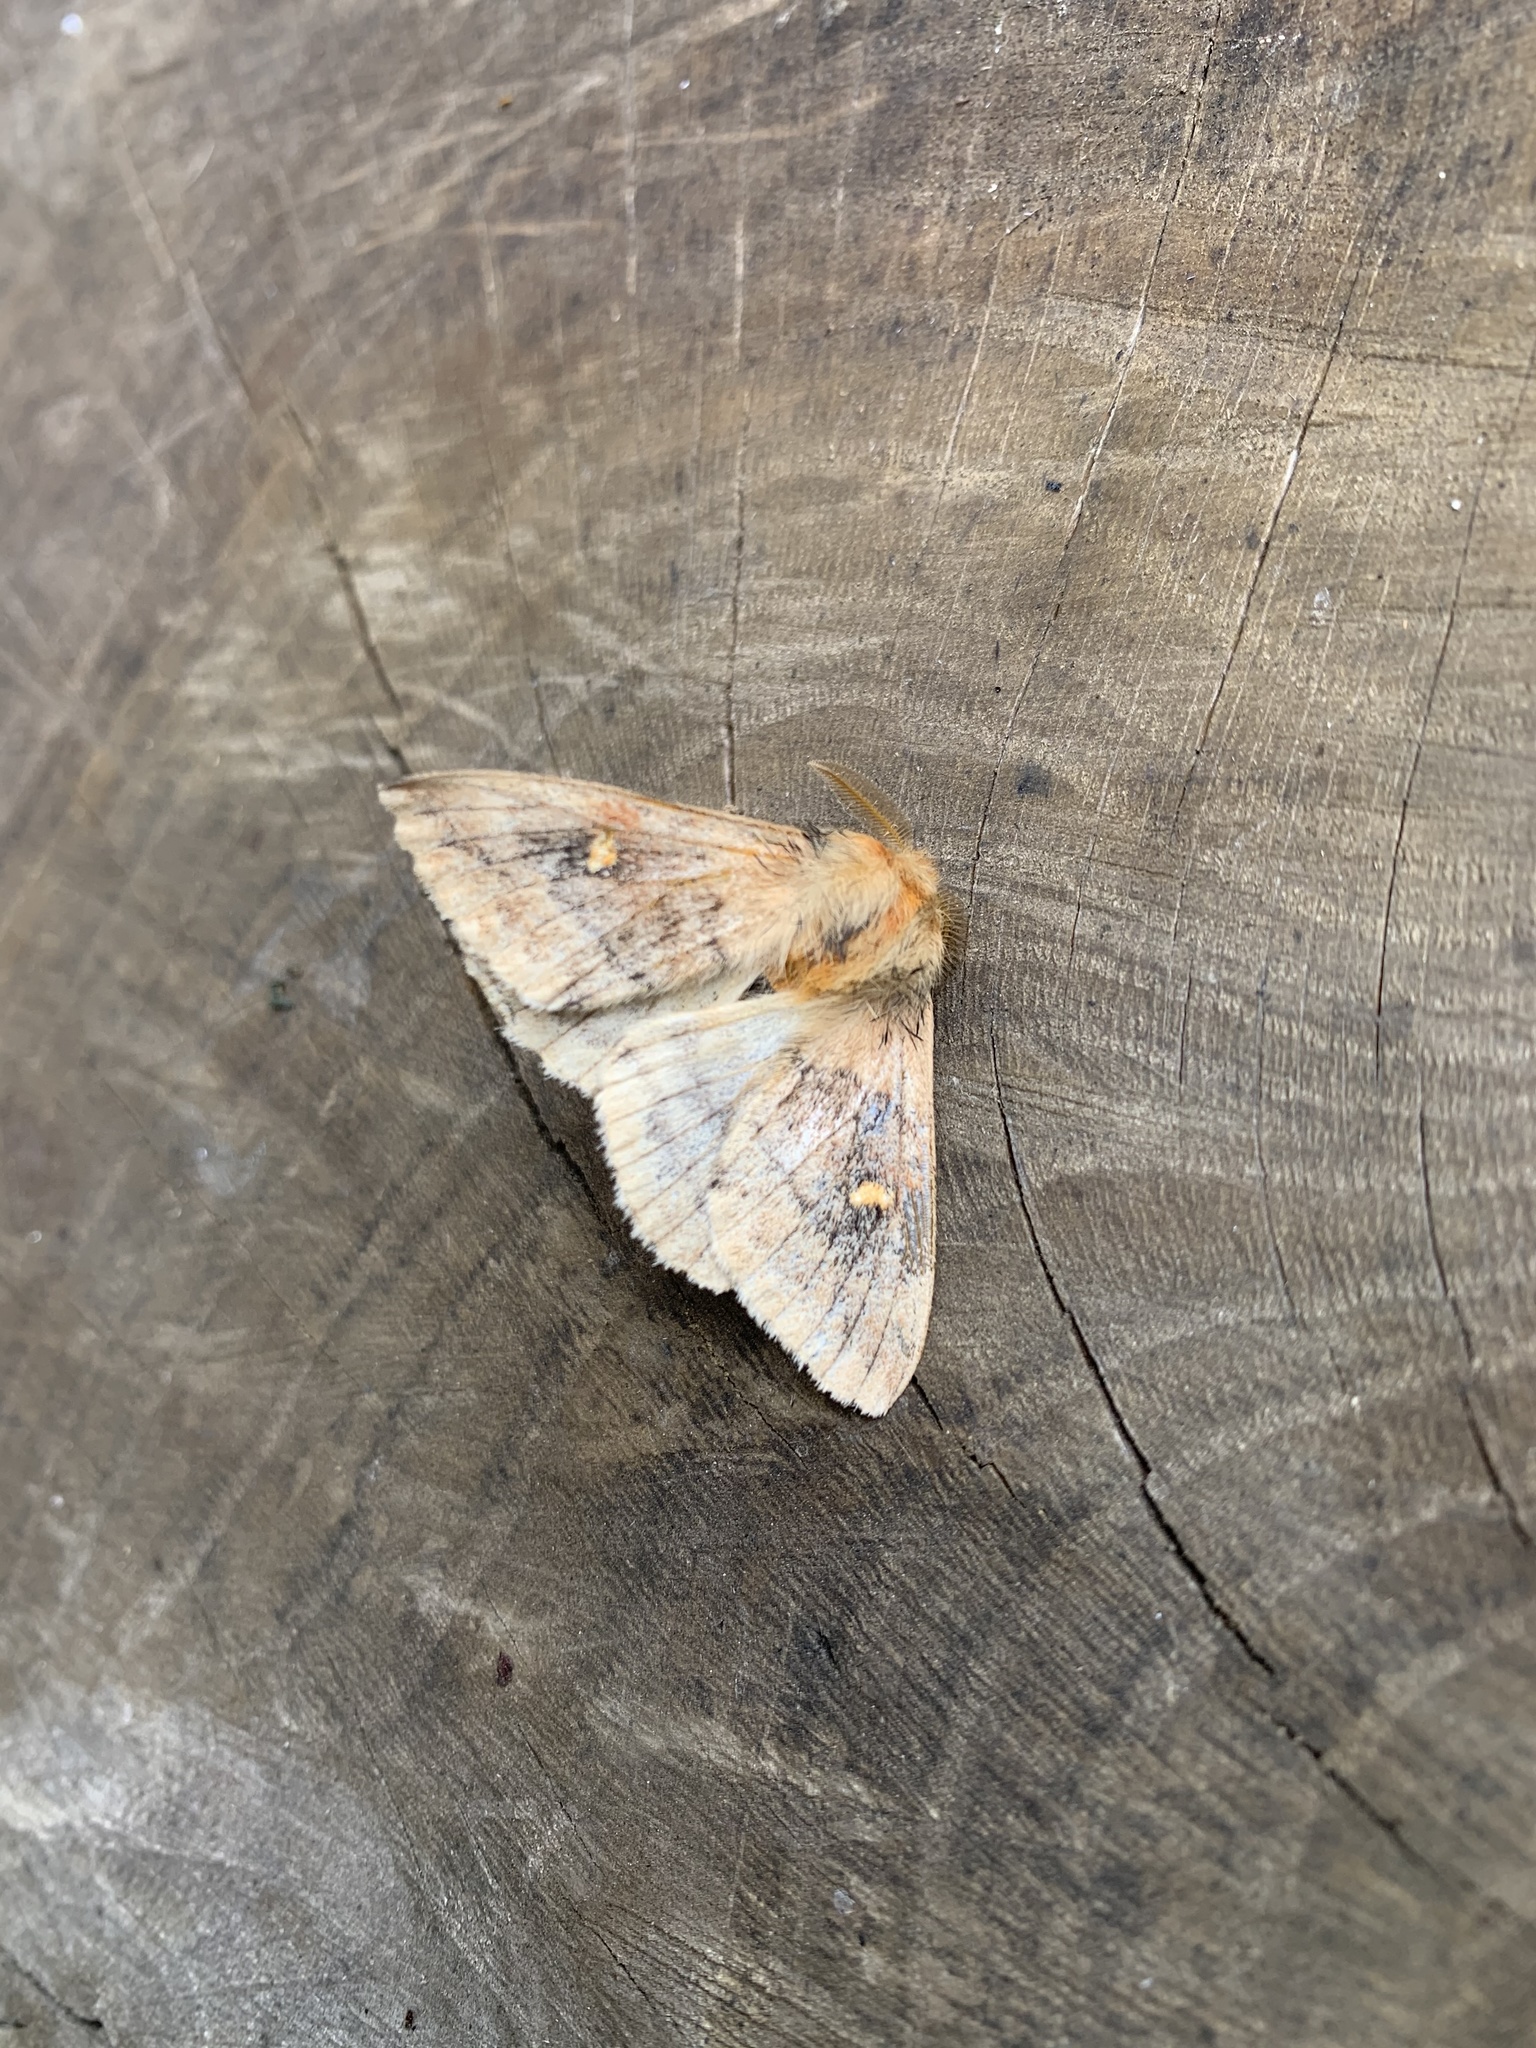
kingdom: Animalia
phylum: Arthropoda
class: Insecta
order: Lepidoptera
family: Saturniidae
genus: Ormiscodes
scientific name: Ormiscodes amphinome
